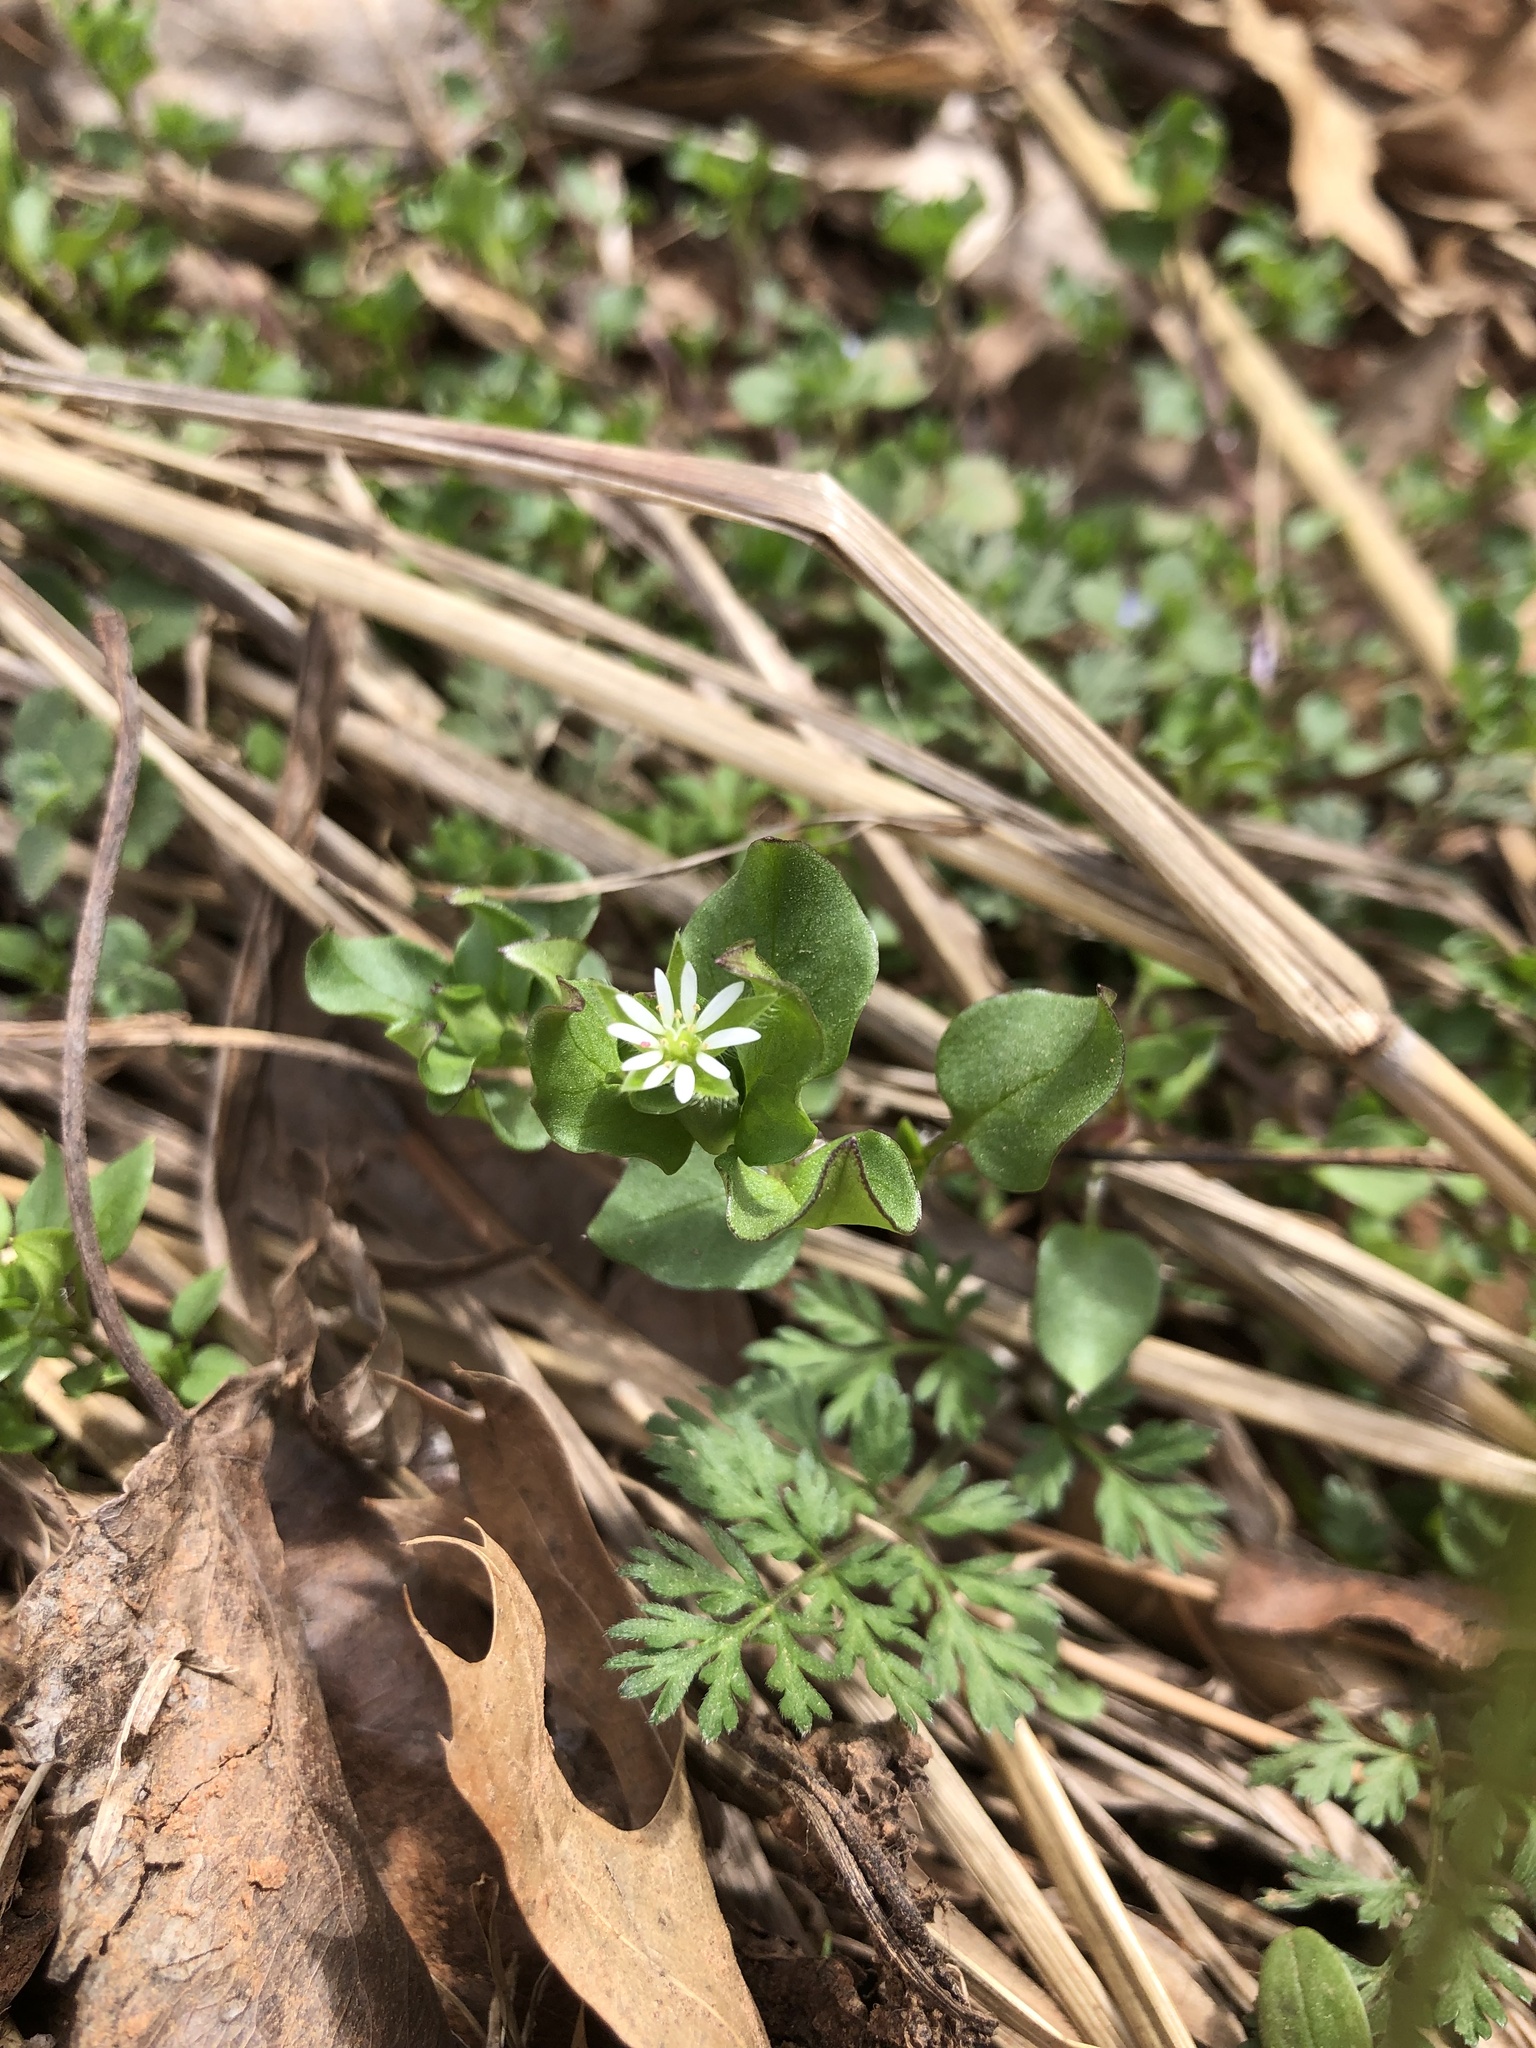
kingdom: Plantae
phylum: Tracheophyta
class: Magnoliopsida
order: Caryophyllales
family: Caryophyllaceae
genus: Stellaria
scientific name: Stellaria media
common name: Common chickweed
